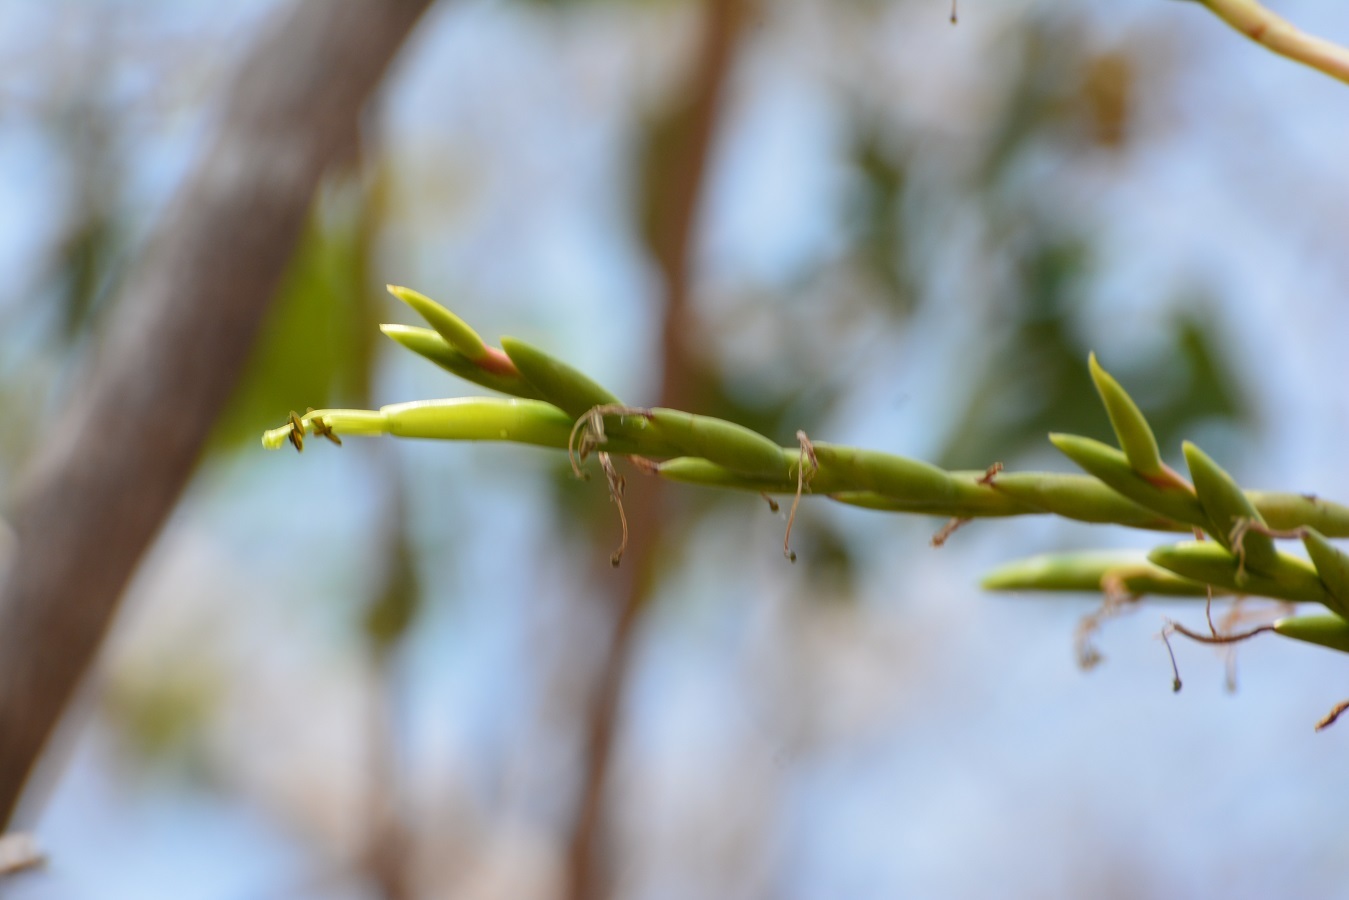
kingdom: Plantae
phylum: Tracheophyta
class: Liliopsida
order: Poales
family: Bromeliaceae
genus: Tillandsia
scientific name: Tillandsia elusiva
